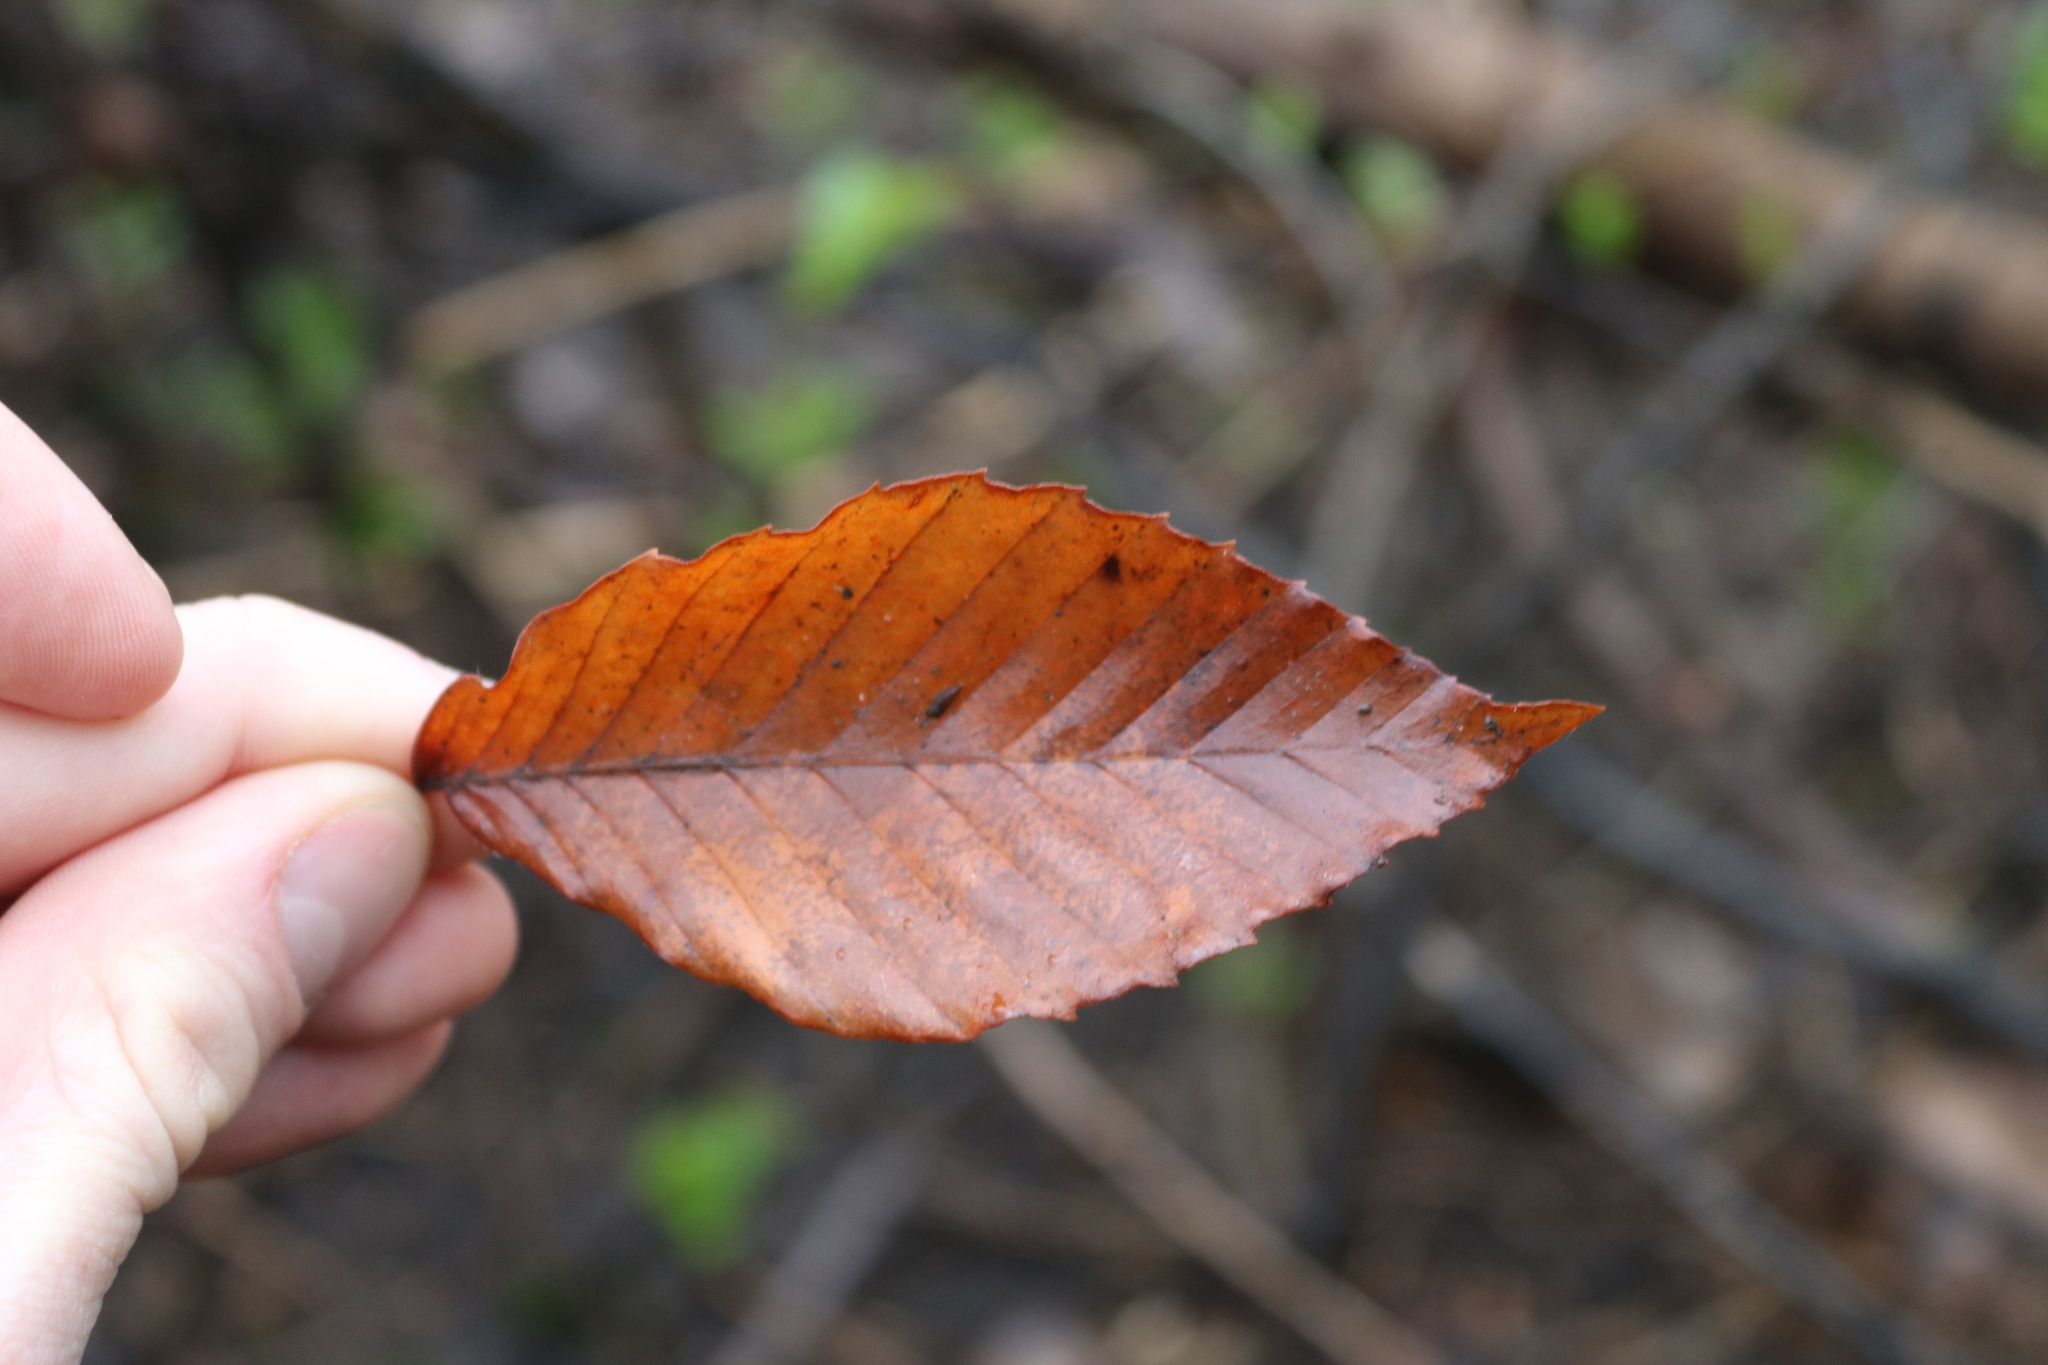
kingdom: Plantae
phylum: Tracheophyta
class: Magnoliopsida
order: Fagales
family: Fagaceae
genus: Fagus
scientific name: Fagus grandifolia
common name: American beech
